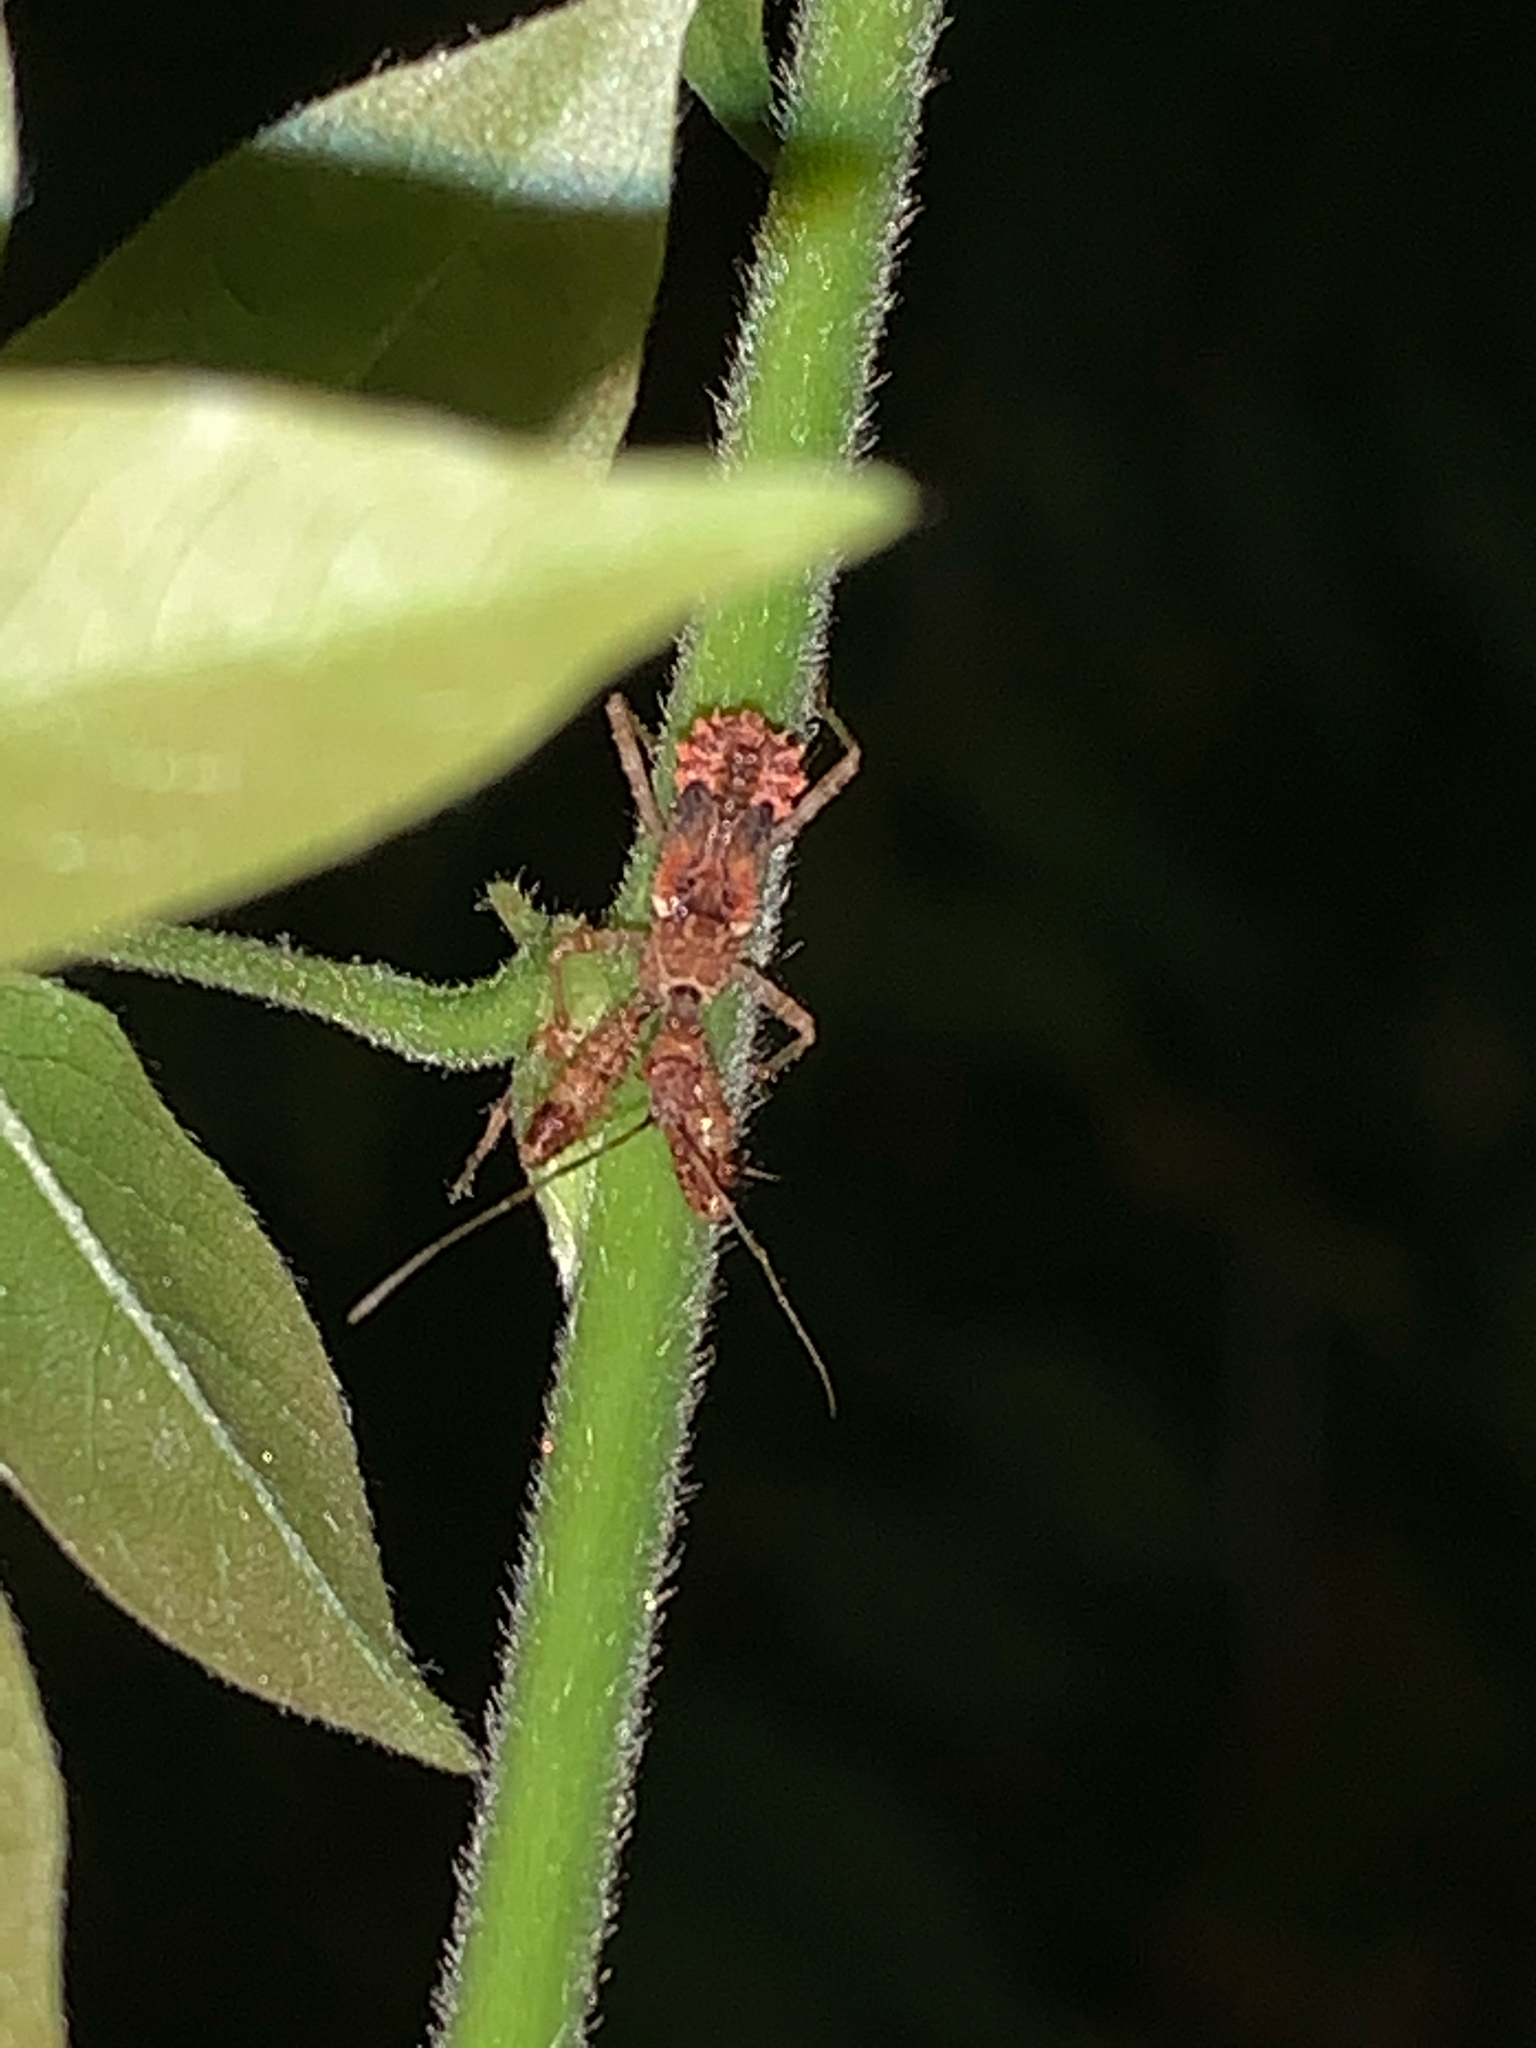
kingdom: Animalia
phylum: Arthropoda
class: Insecta
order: Hemiptera
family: Reduviidae
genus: Sinea
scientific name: Sinea
